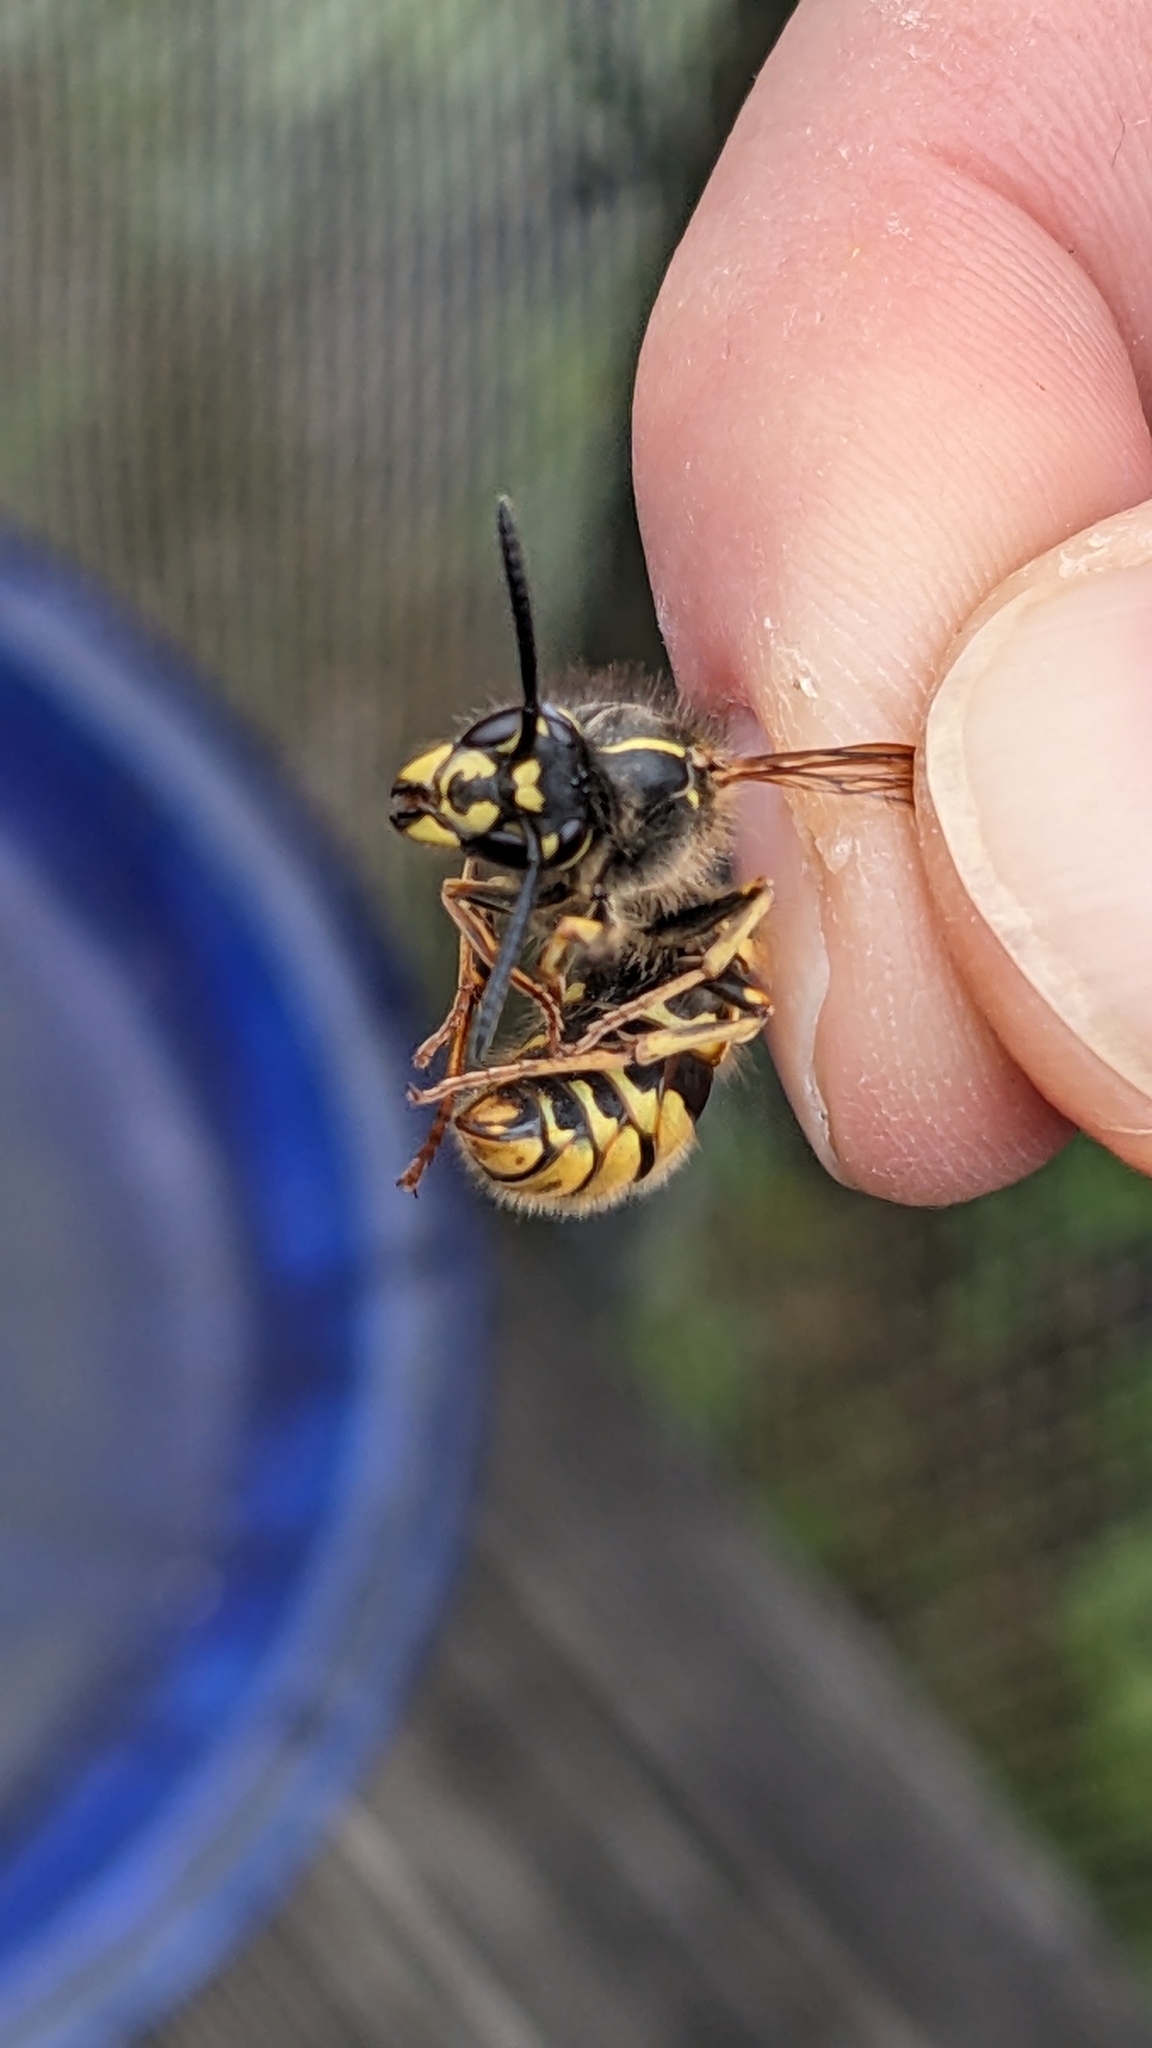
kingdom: Animalia
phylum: Arthropoda
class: Insecta
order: Hymenoptera
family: Vespidae
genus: Vespula
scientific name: Vespula vulgaris
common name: Common wasp
